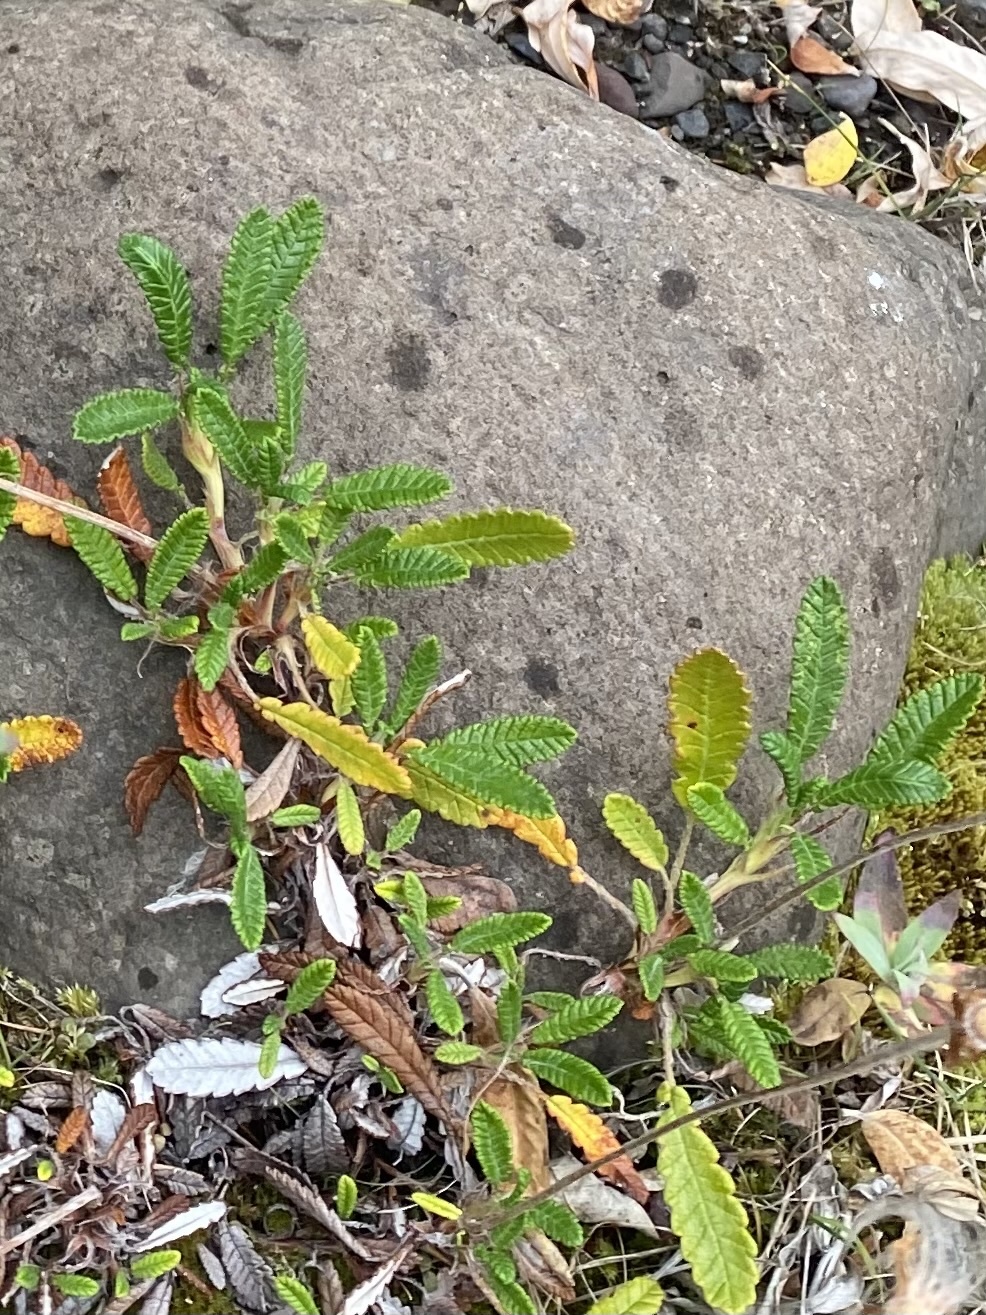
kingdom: Plantae
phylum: Tracheophyta
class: Magnoliopsida
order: Rosales
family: Rosaceae
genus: Dryas
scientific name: Dryas octopetala
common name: Eight-petal mountain-avens
